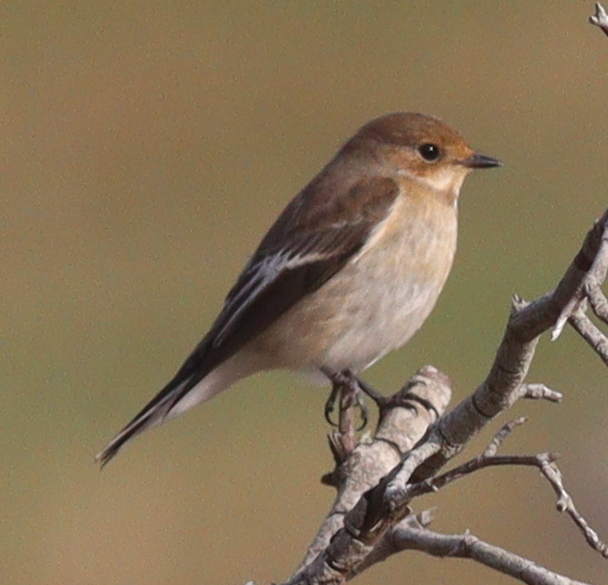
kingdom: Animalia
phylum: Chordata
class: Aves
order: Passeriformes
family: Muscicapidae
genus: Ficedula
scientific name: Ficedula hypoleuca
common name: European pied flycatcher
